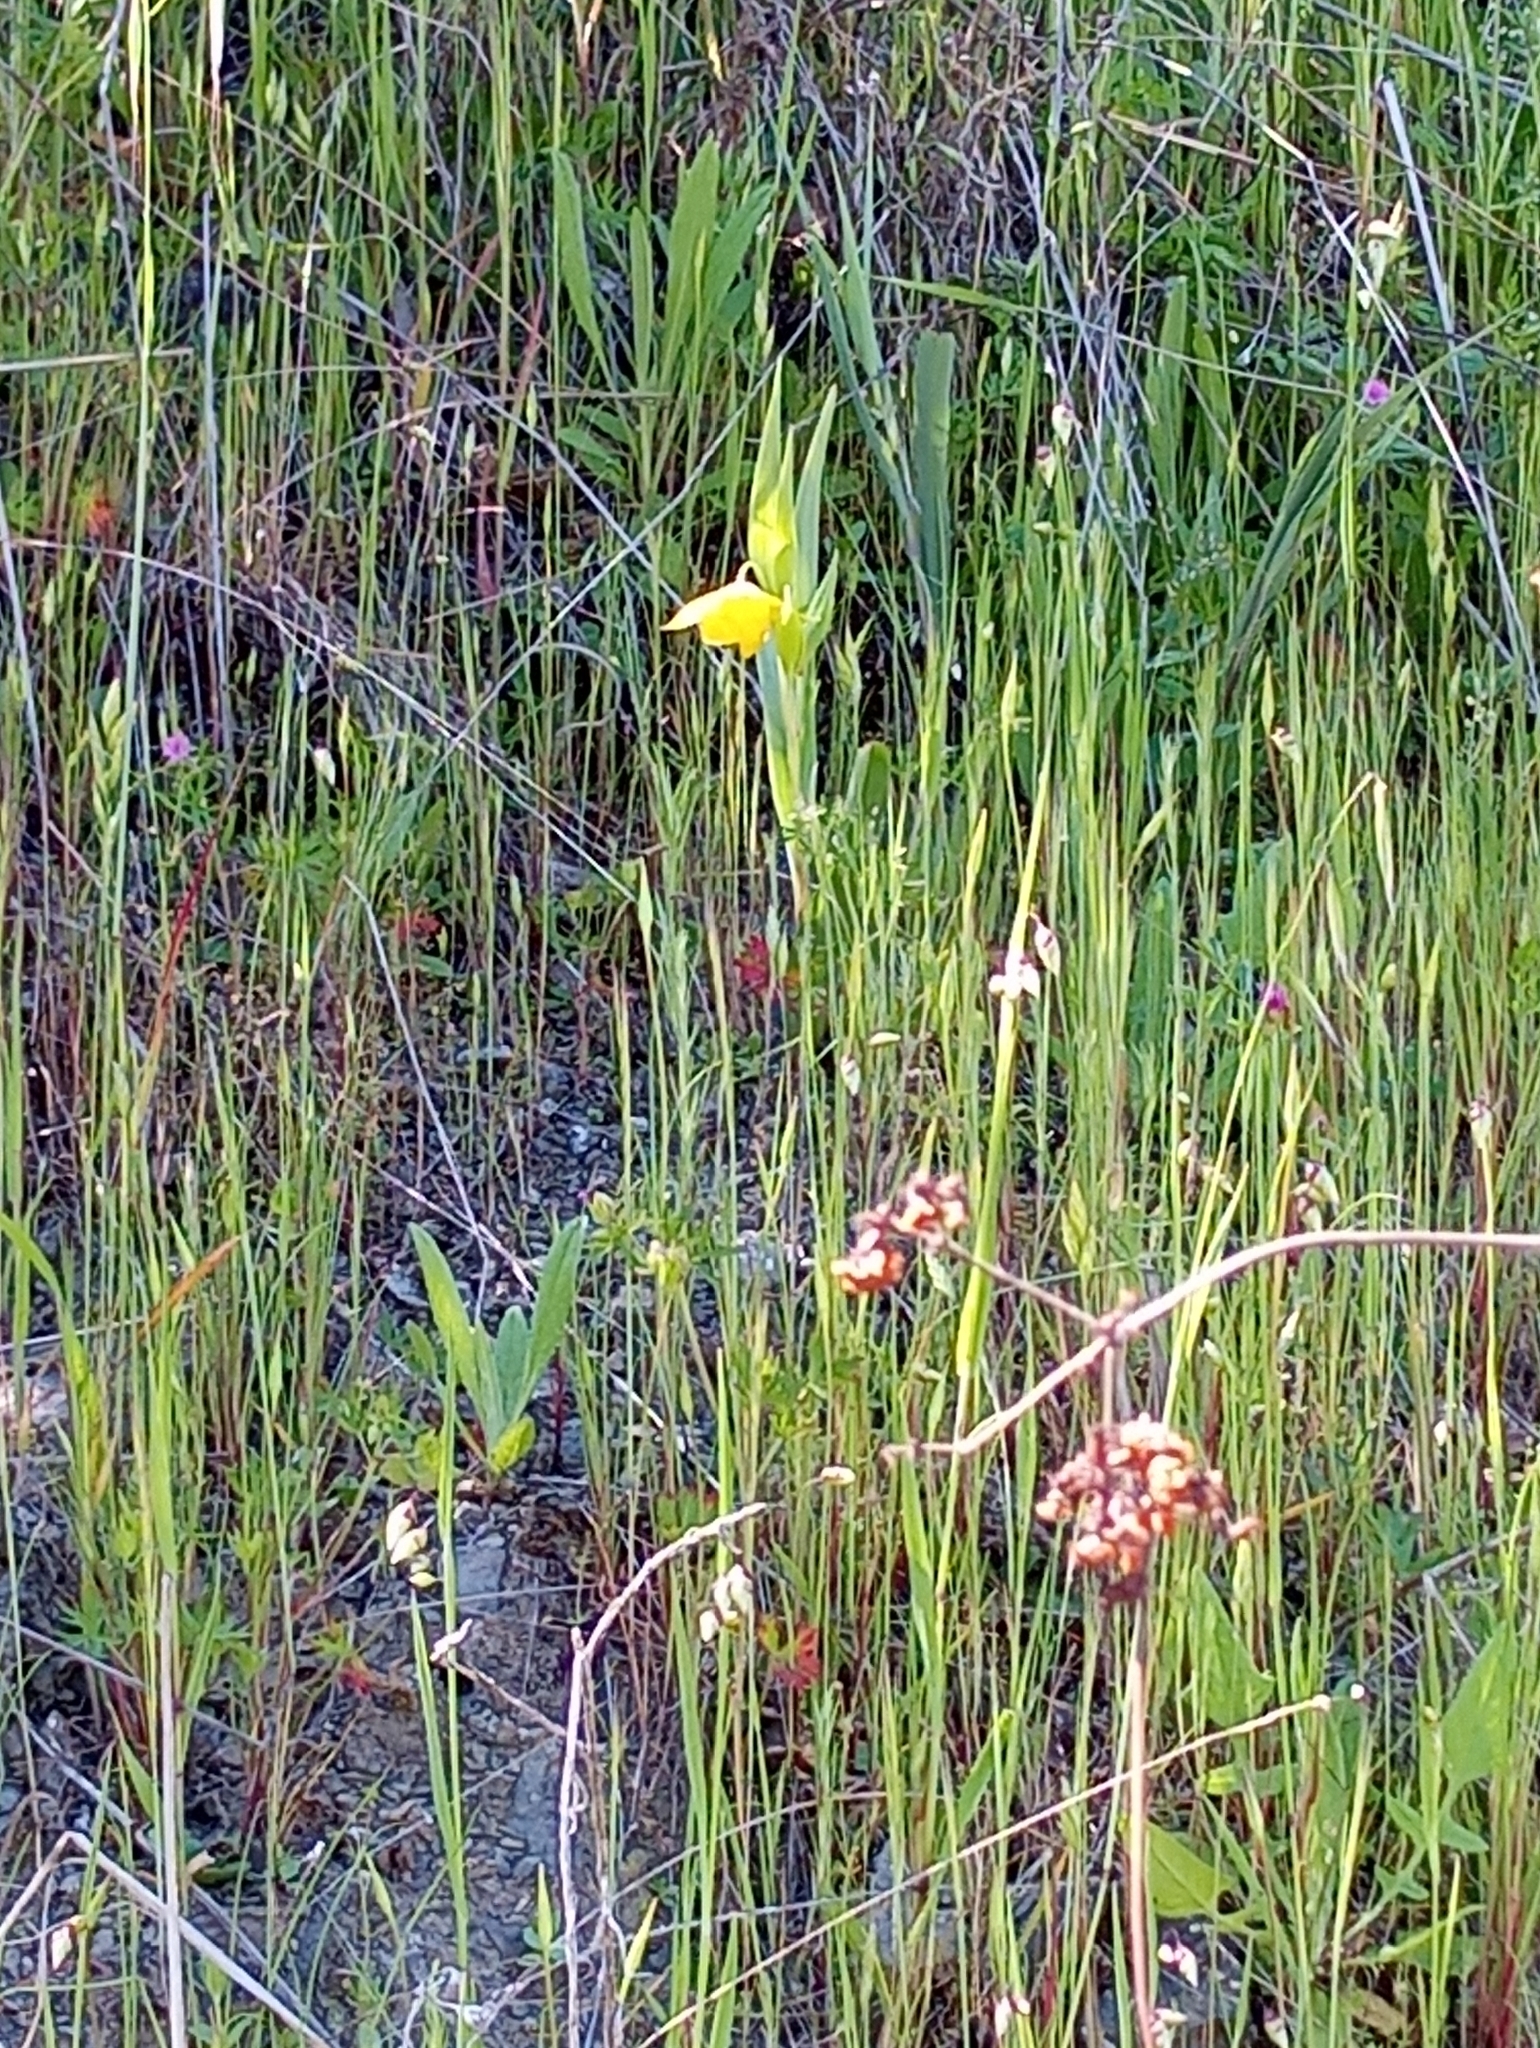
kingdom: Plantae
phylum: Tracheophyta
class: Liliopsida
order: Liliales
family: Liliaceae
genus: Calochortus
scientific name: Calochortus amabilis
